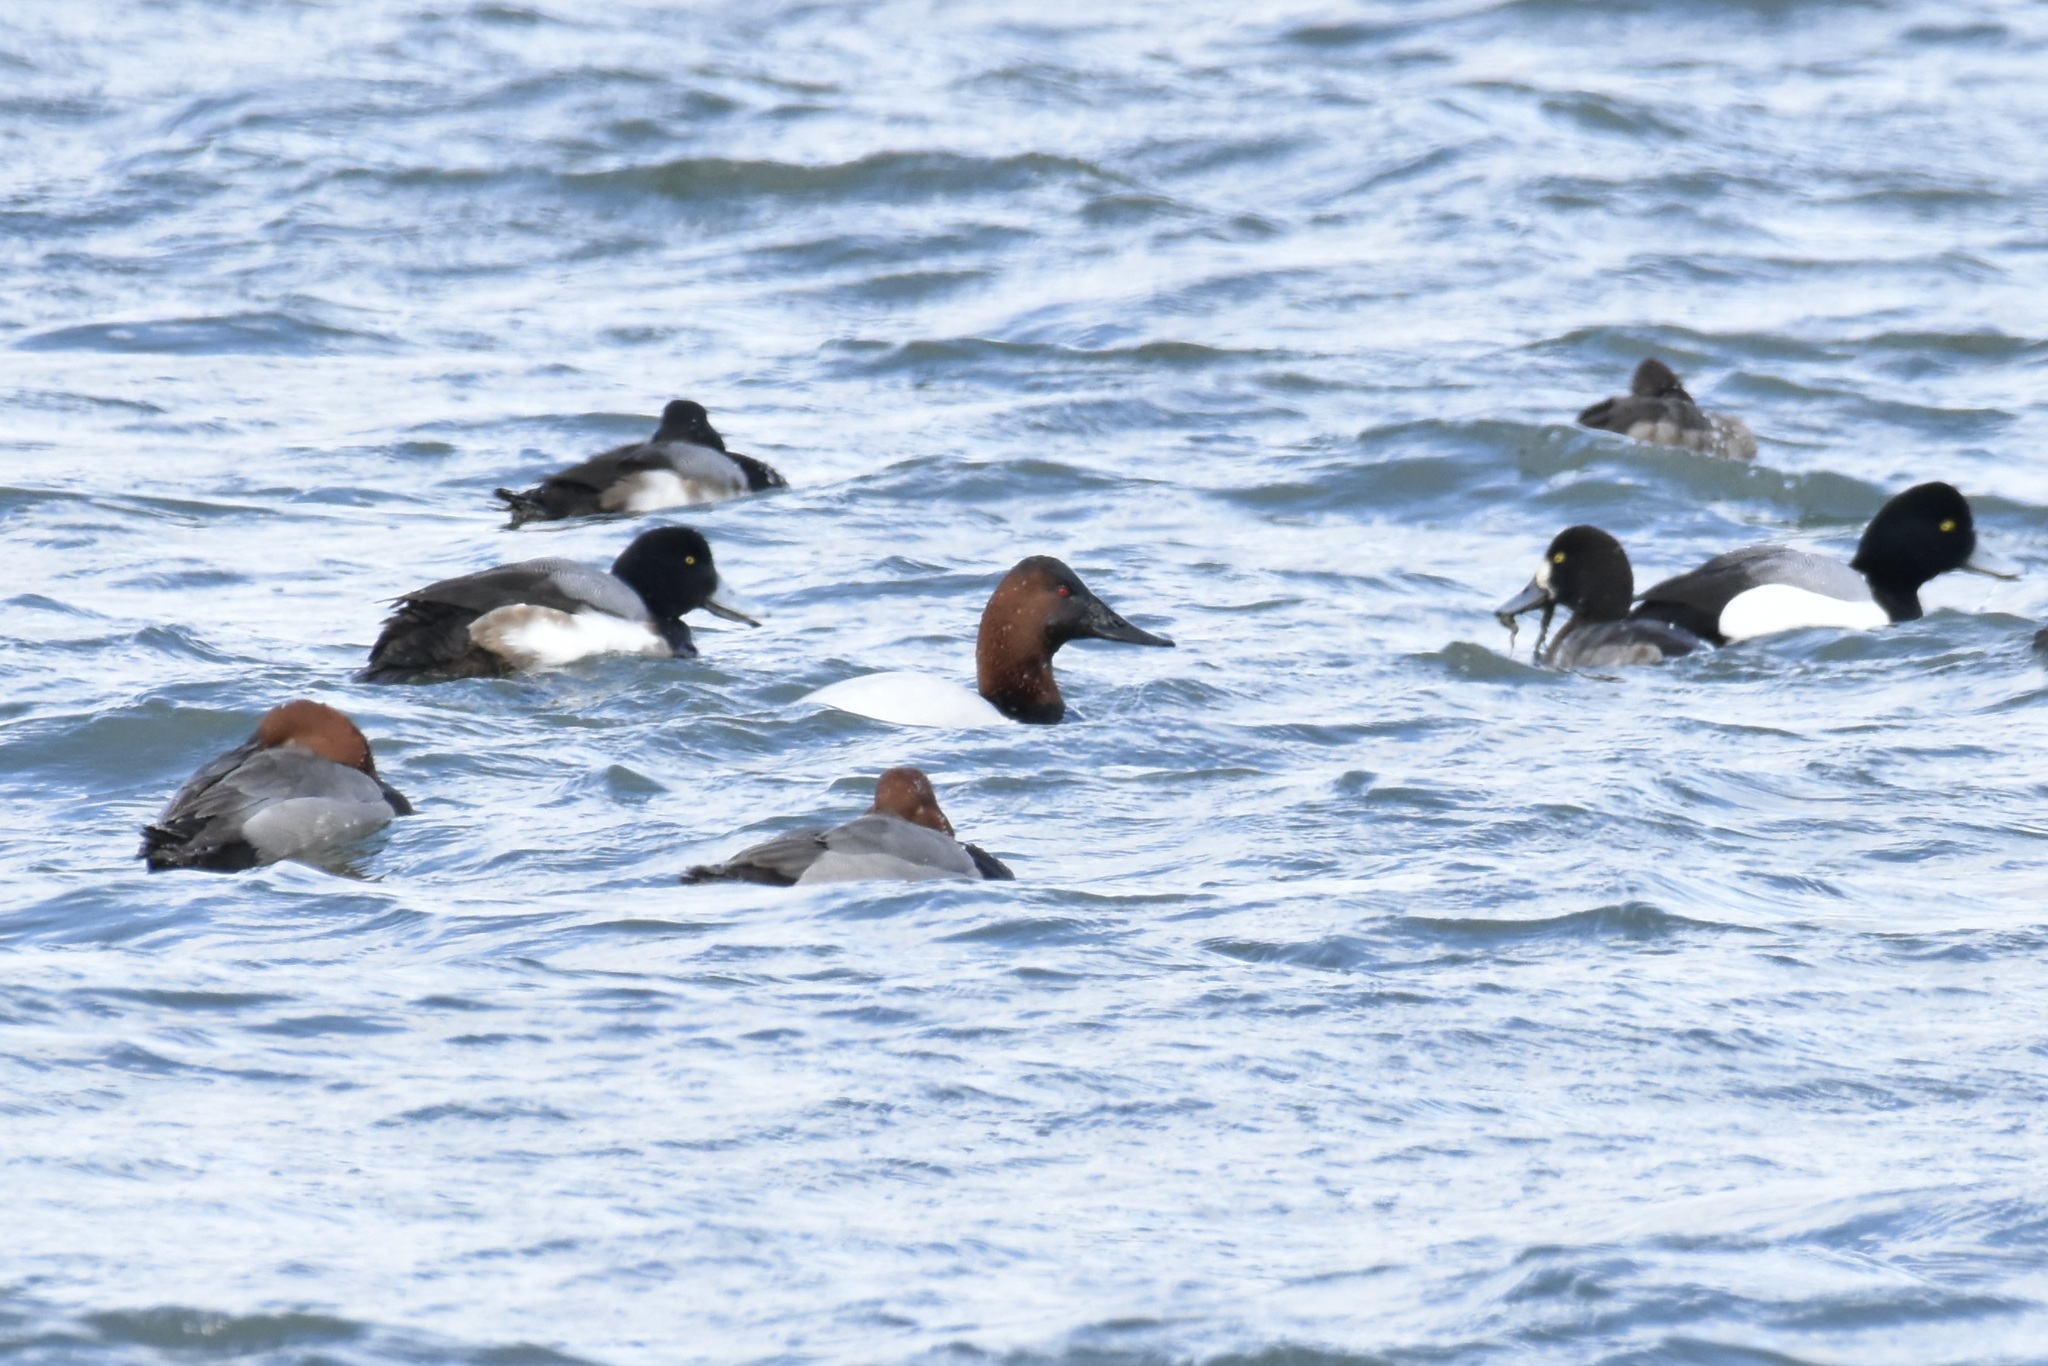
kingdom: Animalia
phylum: Chordata
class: Aves
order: Anseriformes
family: Anatidae
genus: Aythya
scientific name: Aythya valisineria
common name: Canvasback
